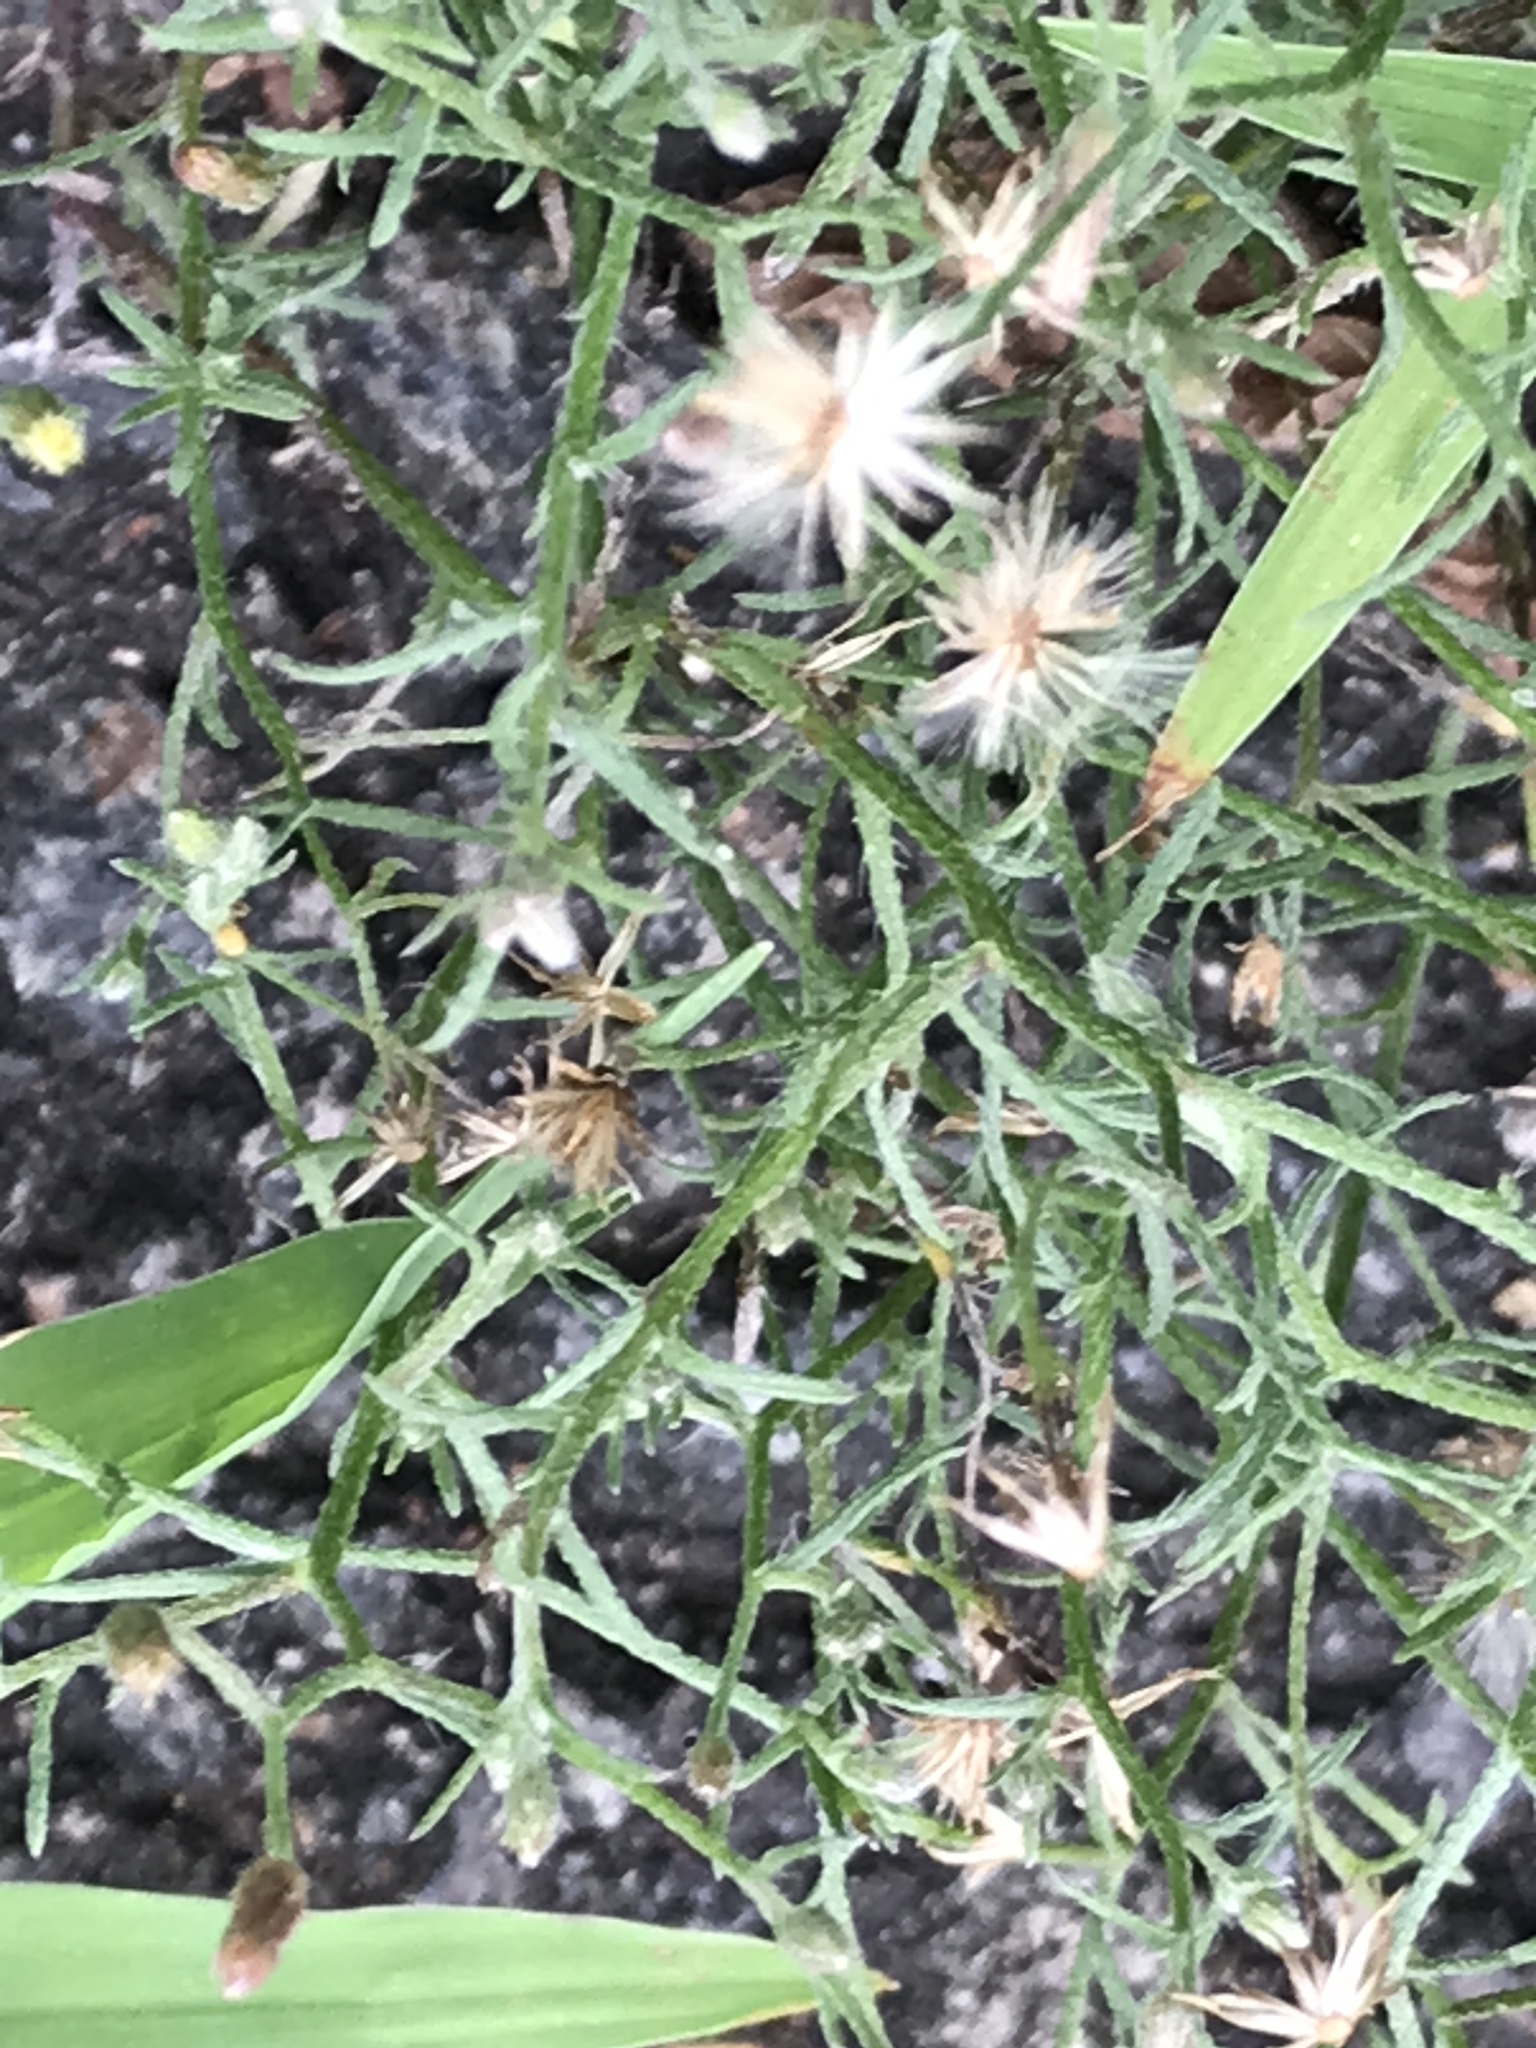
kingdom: Plantae
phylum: Tracheophyta
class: Magnoliopsida
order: Asterales
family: Asteraceae
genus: Erigeron
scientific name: Erigeron divaricatus
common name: Dwarf conyza
